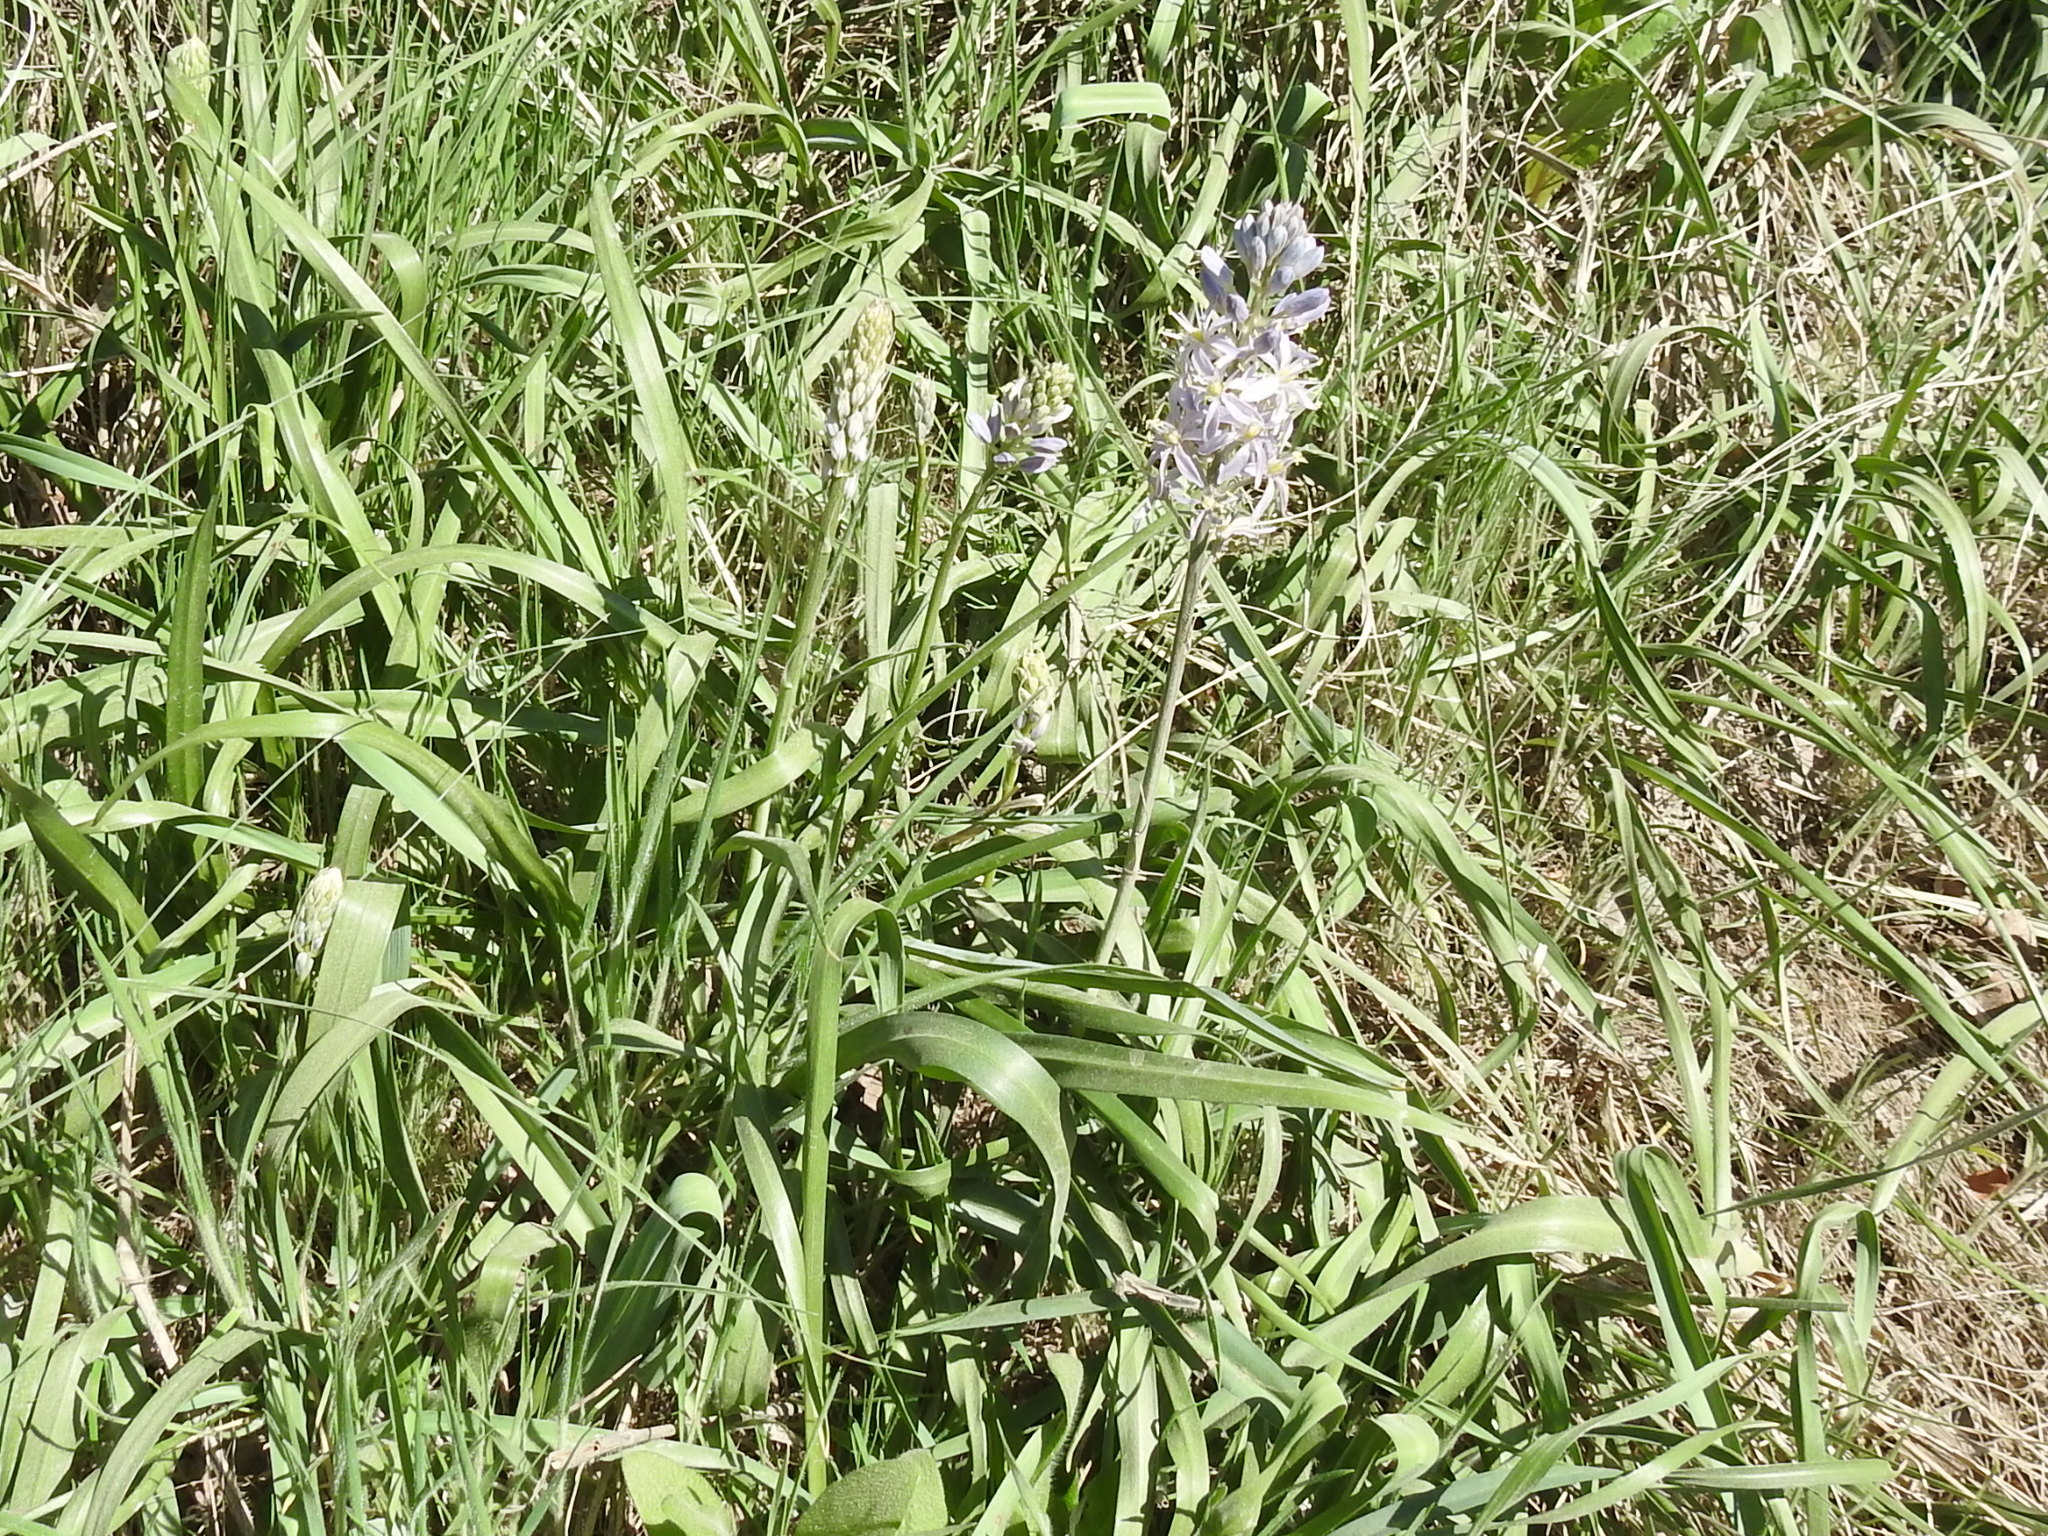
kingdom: Plantae
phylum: Tracheophyta
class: Liliopsida
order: Asparagales
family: Asparagaceae
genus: Camassia
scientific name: Camassia scilloides
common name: Wild hyacinth
